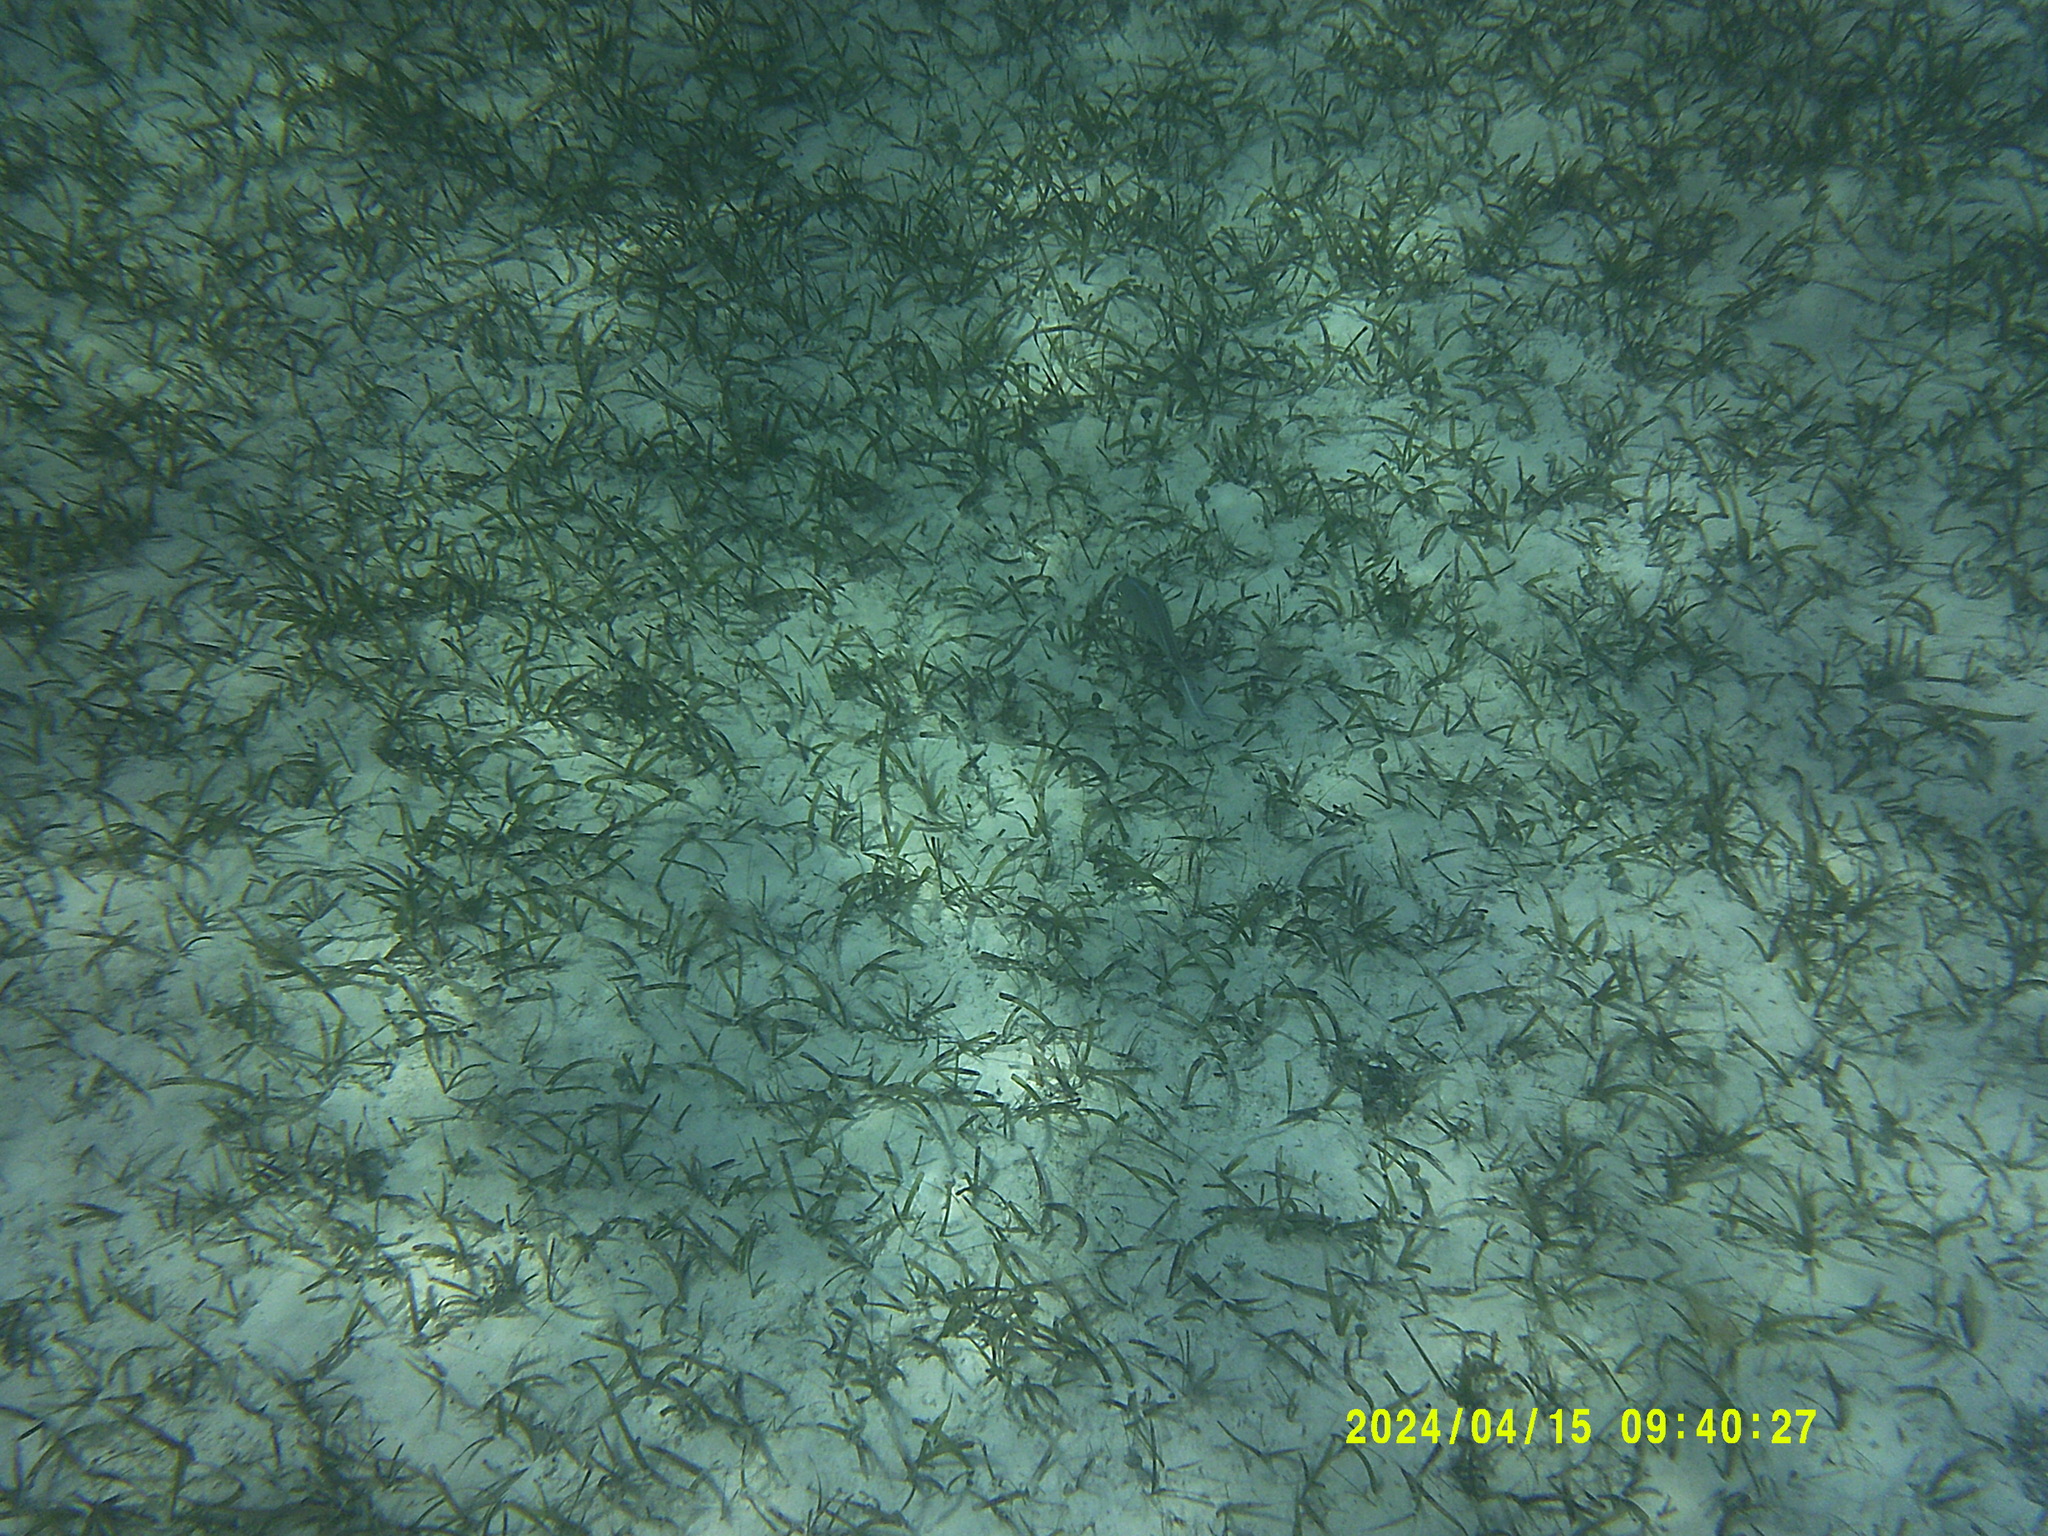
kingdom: Animalia
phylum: Chordata
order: Perciformes
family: Carangidae
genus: Caranx
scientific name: Caranx ruber
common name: Bar jack
